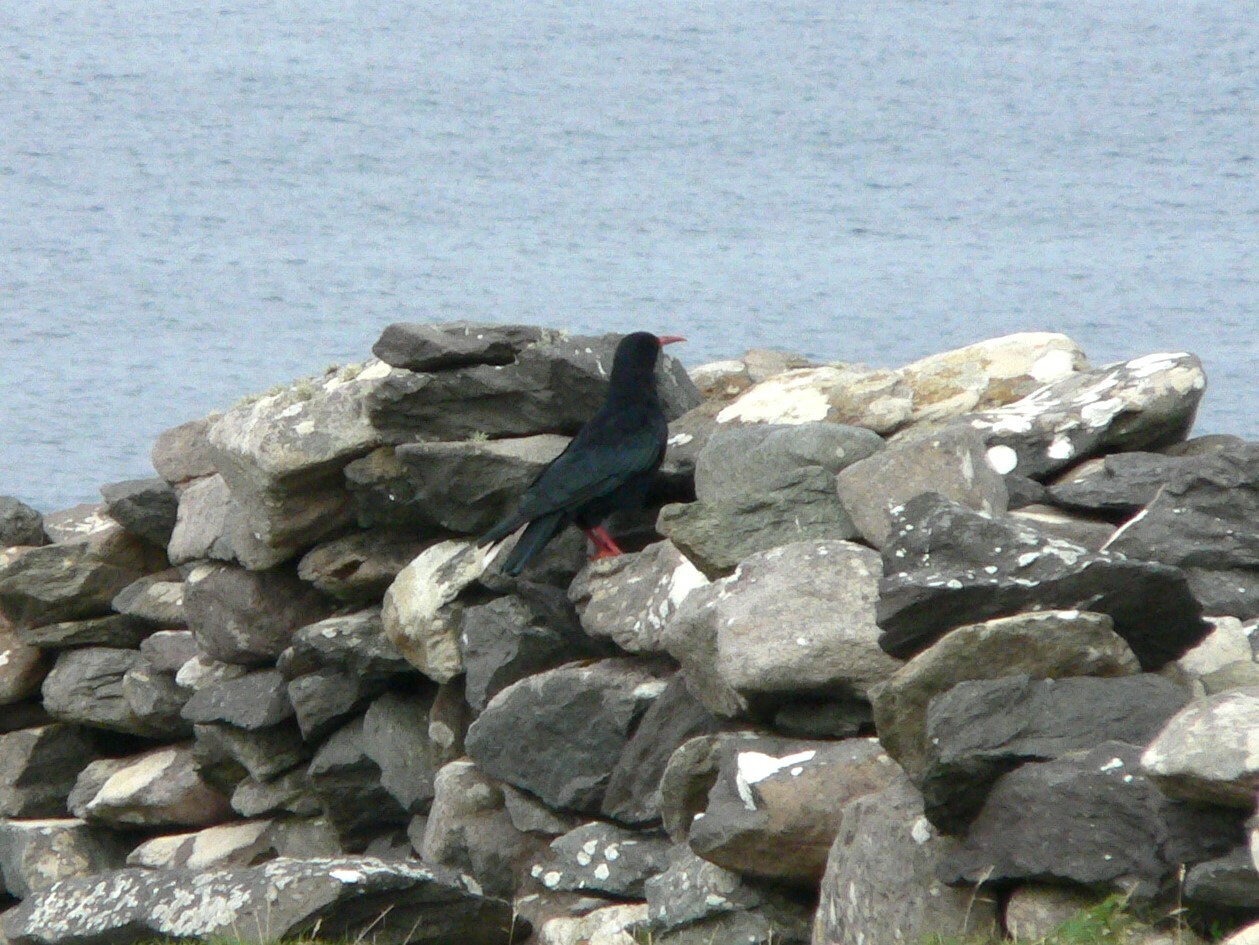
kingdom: Animalia
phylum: Chordata
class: Aves
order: Passeriformes
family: Corvidae
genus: Pyrrhocorax
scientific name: Pyrrhocorax pyrrhocorax
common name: Red-billed chough
